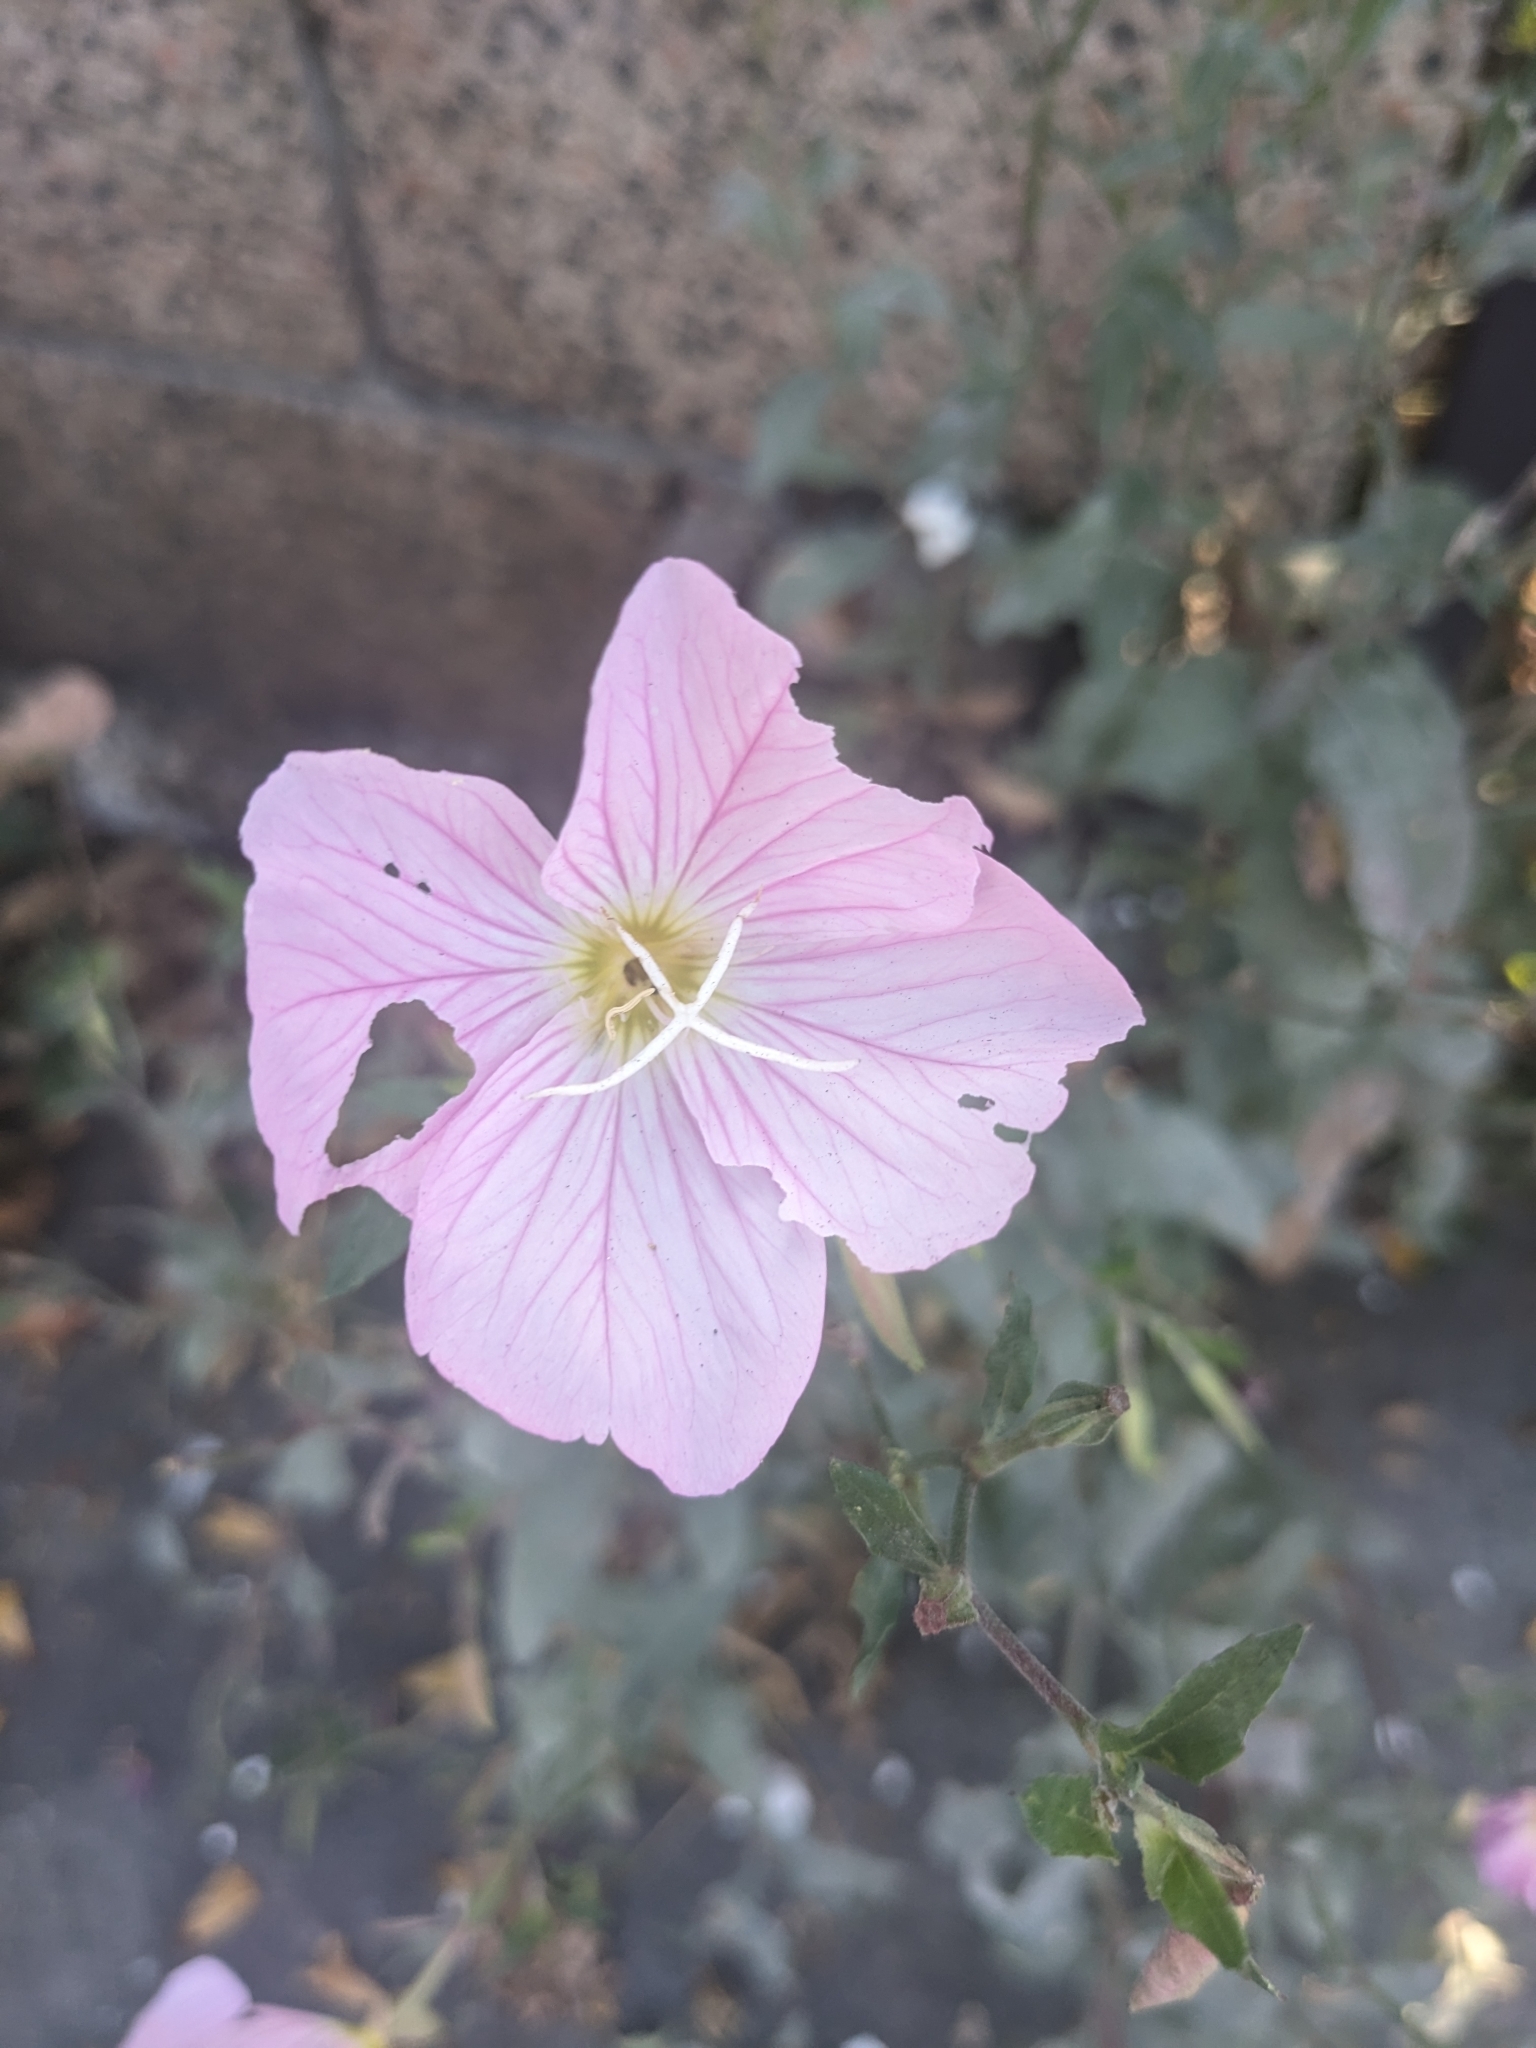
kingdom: Plantae
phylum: Tracheophyta
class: Magnoliopsida
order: Myrtales
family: Onagraceae
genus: Oenothera
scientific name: Oenothera speciosa
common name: White evening-primrose
